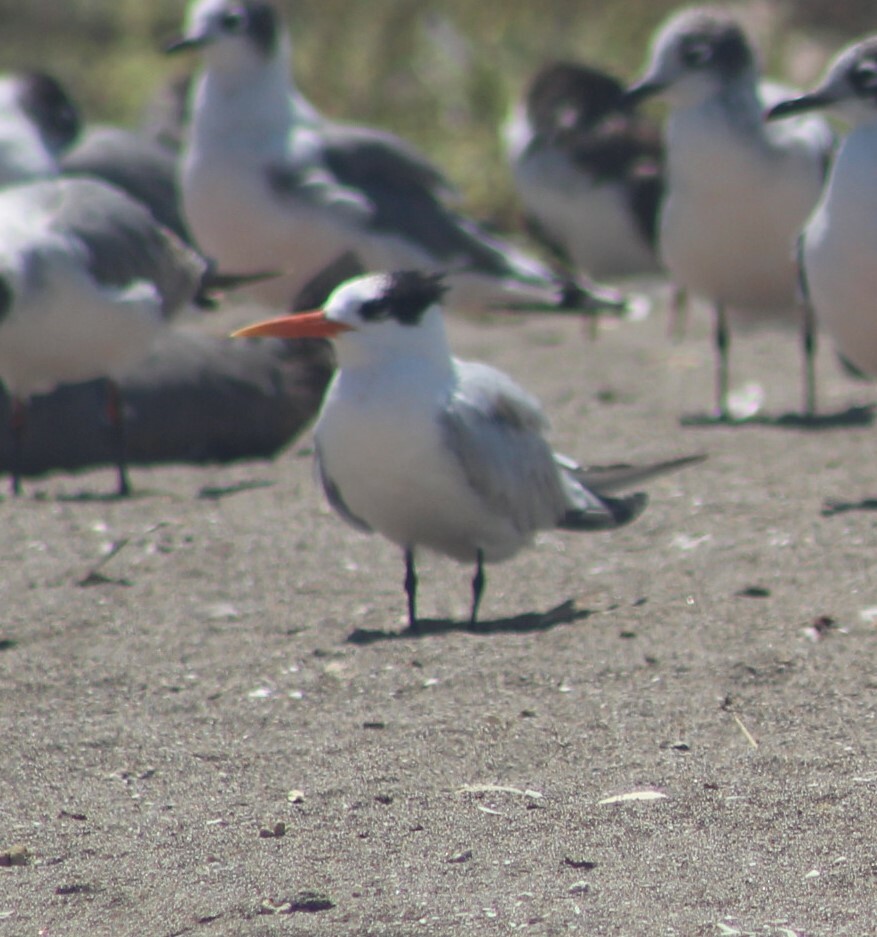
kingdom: Animalia
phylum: Chordata
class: Aves
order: Charadriiformes
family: Laridae
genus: Thalasseus
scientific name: Thalasseus elegans
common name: Elegant tern
